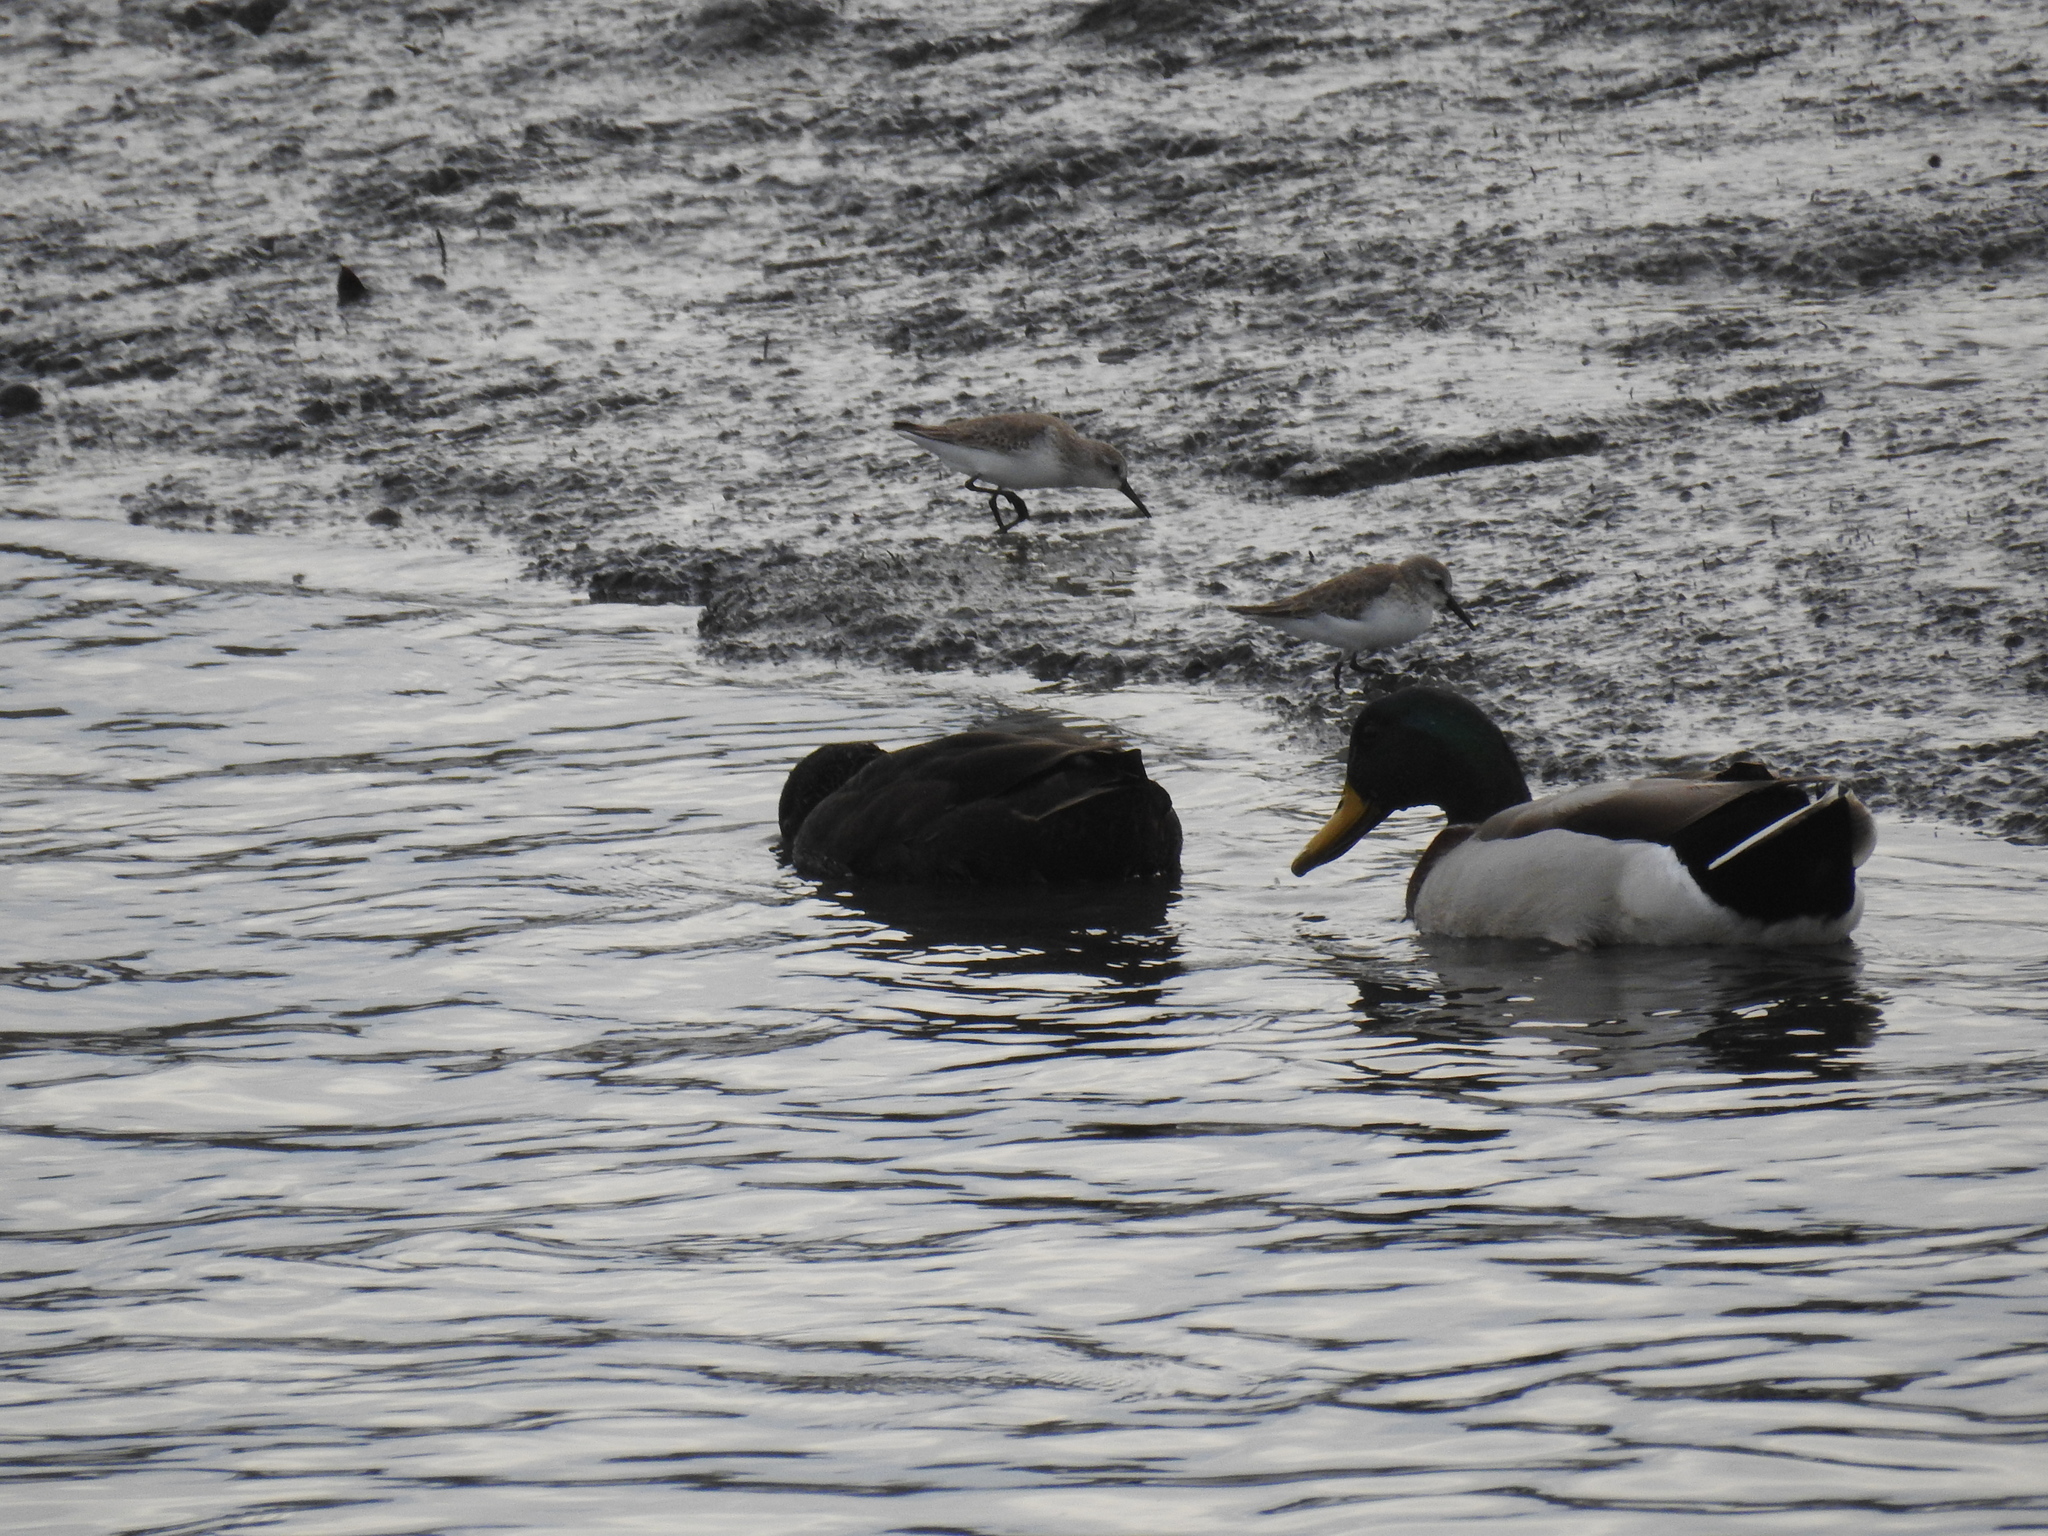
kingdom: Animalia
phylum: Chordata
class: Aves
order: Anseriformes
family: Anatidae
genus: Anas
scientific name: Anas platyrhynchos
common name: Mallard
